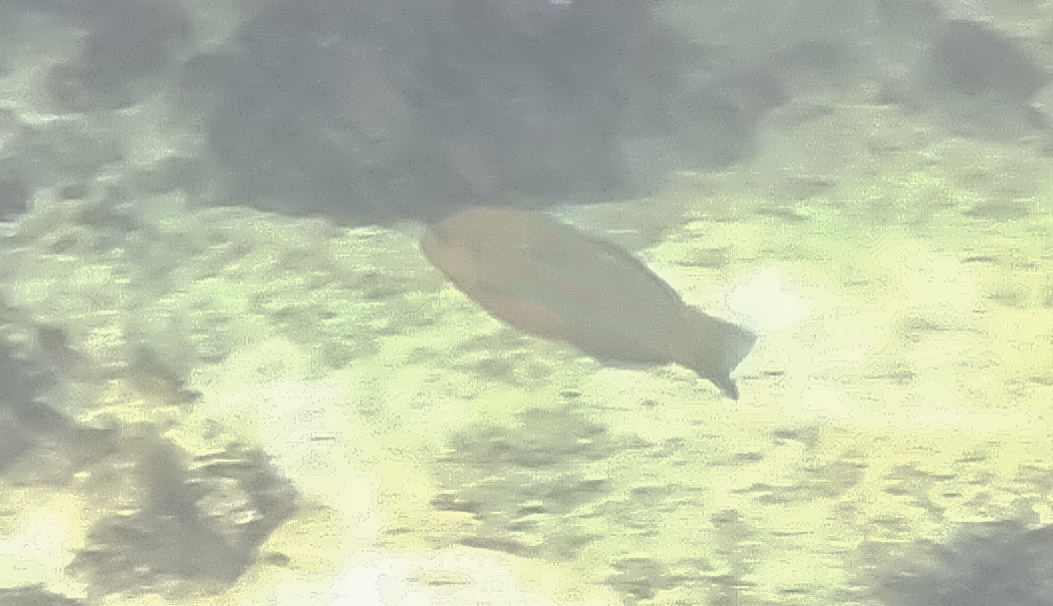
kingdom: Animalia
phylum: Chordata
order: Perciformes
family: Labridae
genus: Thalassoma
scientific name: Thalassoma trilobatum
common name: Christmas wrasse
